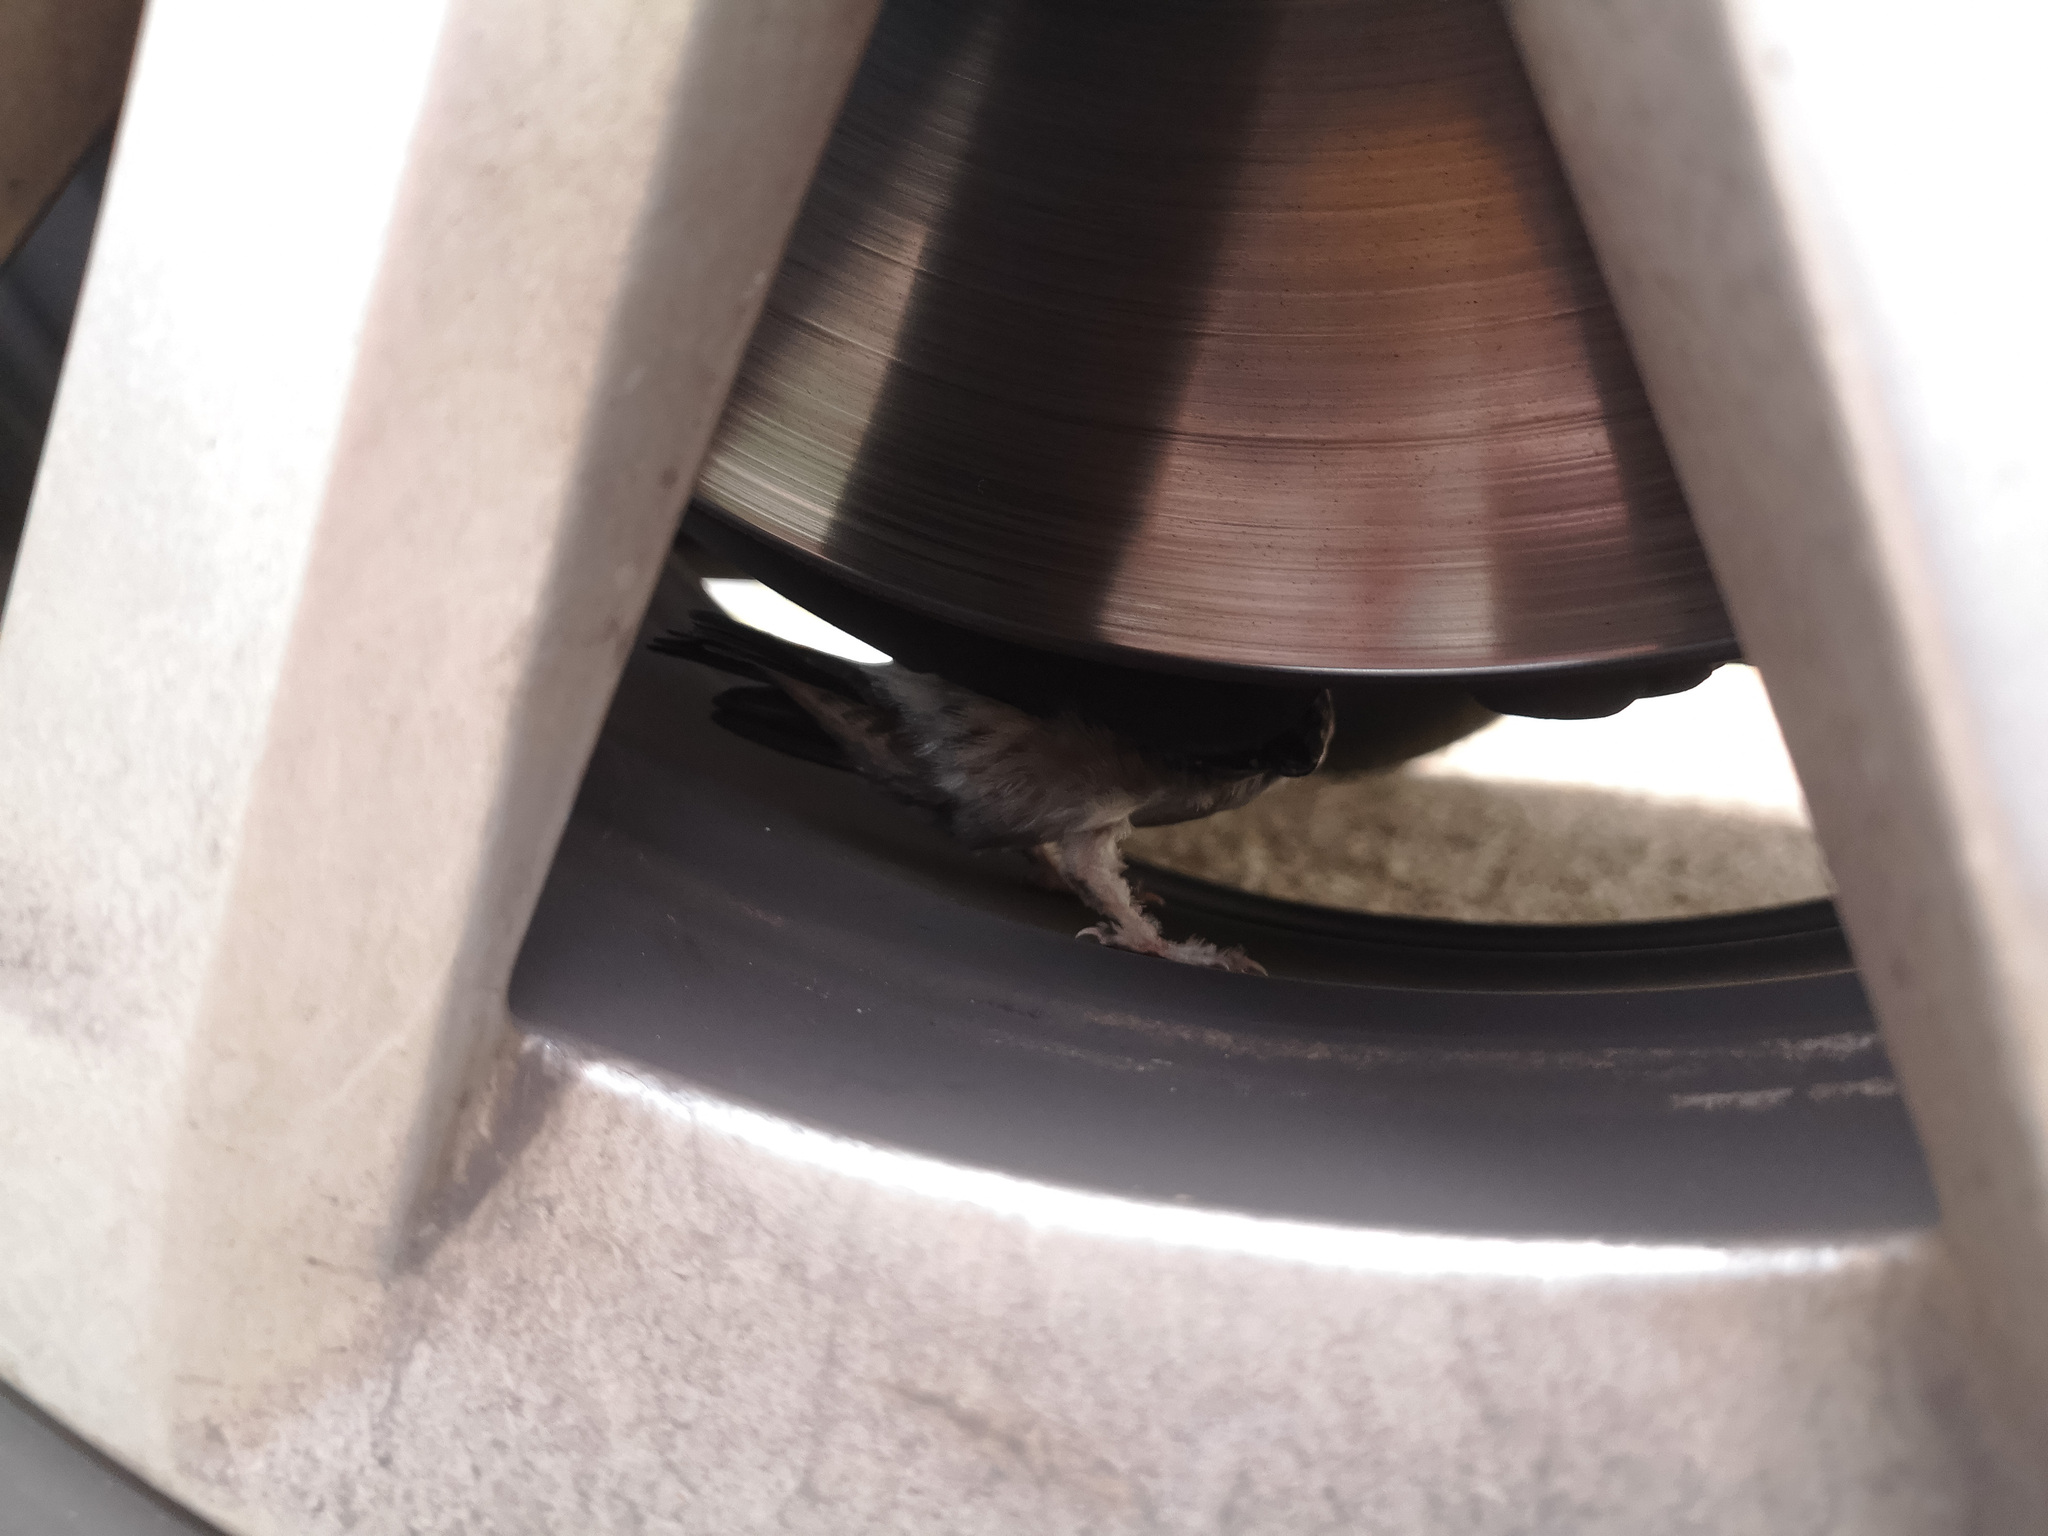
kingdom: Animalia
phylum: Chordata
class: Aves
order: Passeriformes
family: Hirundinidae
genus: Delichon
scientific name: Delichon urbicum
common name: Common house martin
